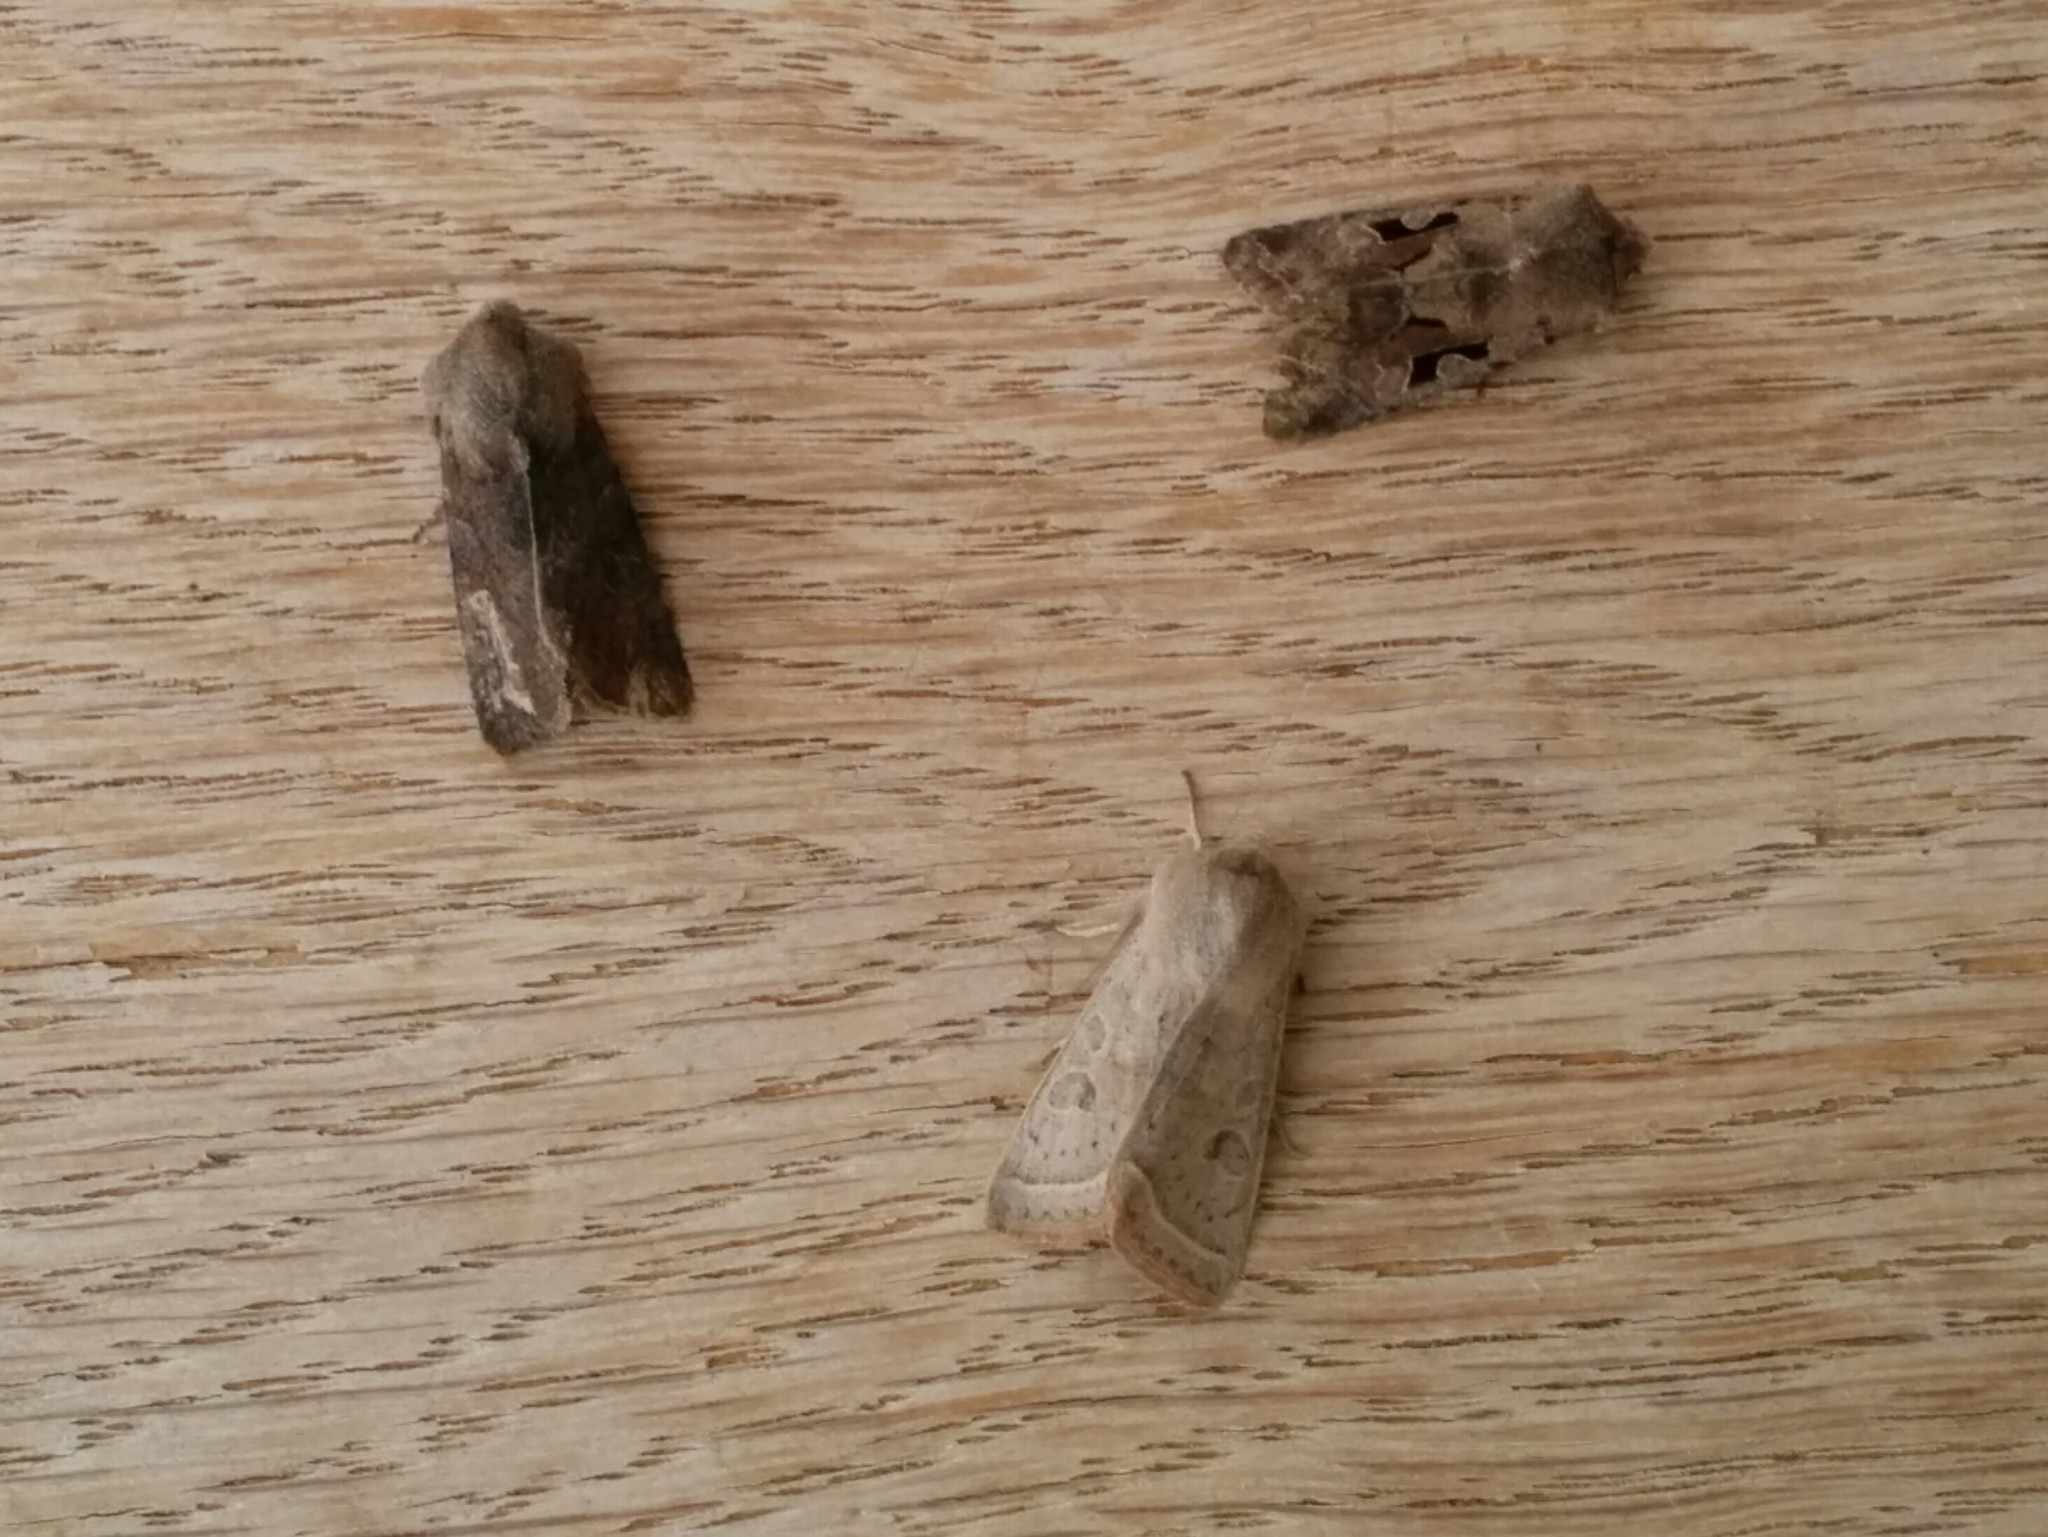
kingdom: Animalia
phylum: Arthropoda
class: Insecta
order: Lepidoptera
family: Noctuidae
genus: Orthosia
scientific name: Orthosia gothica
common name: Hebrew character
